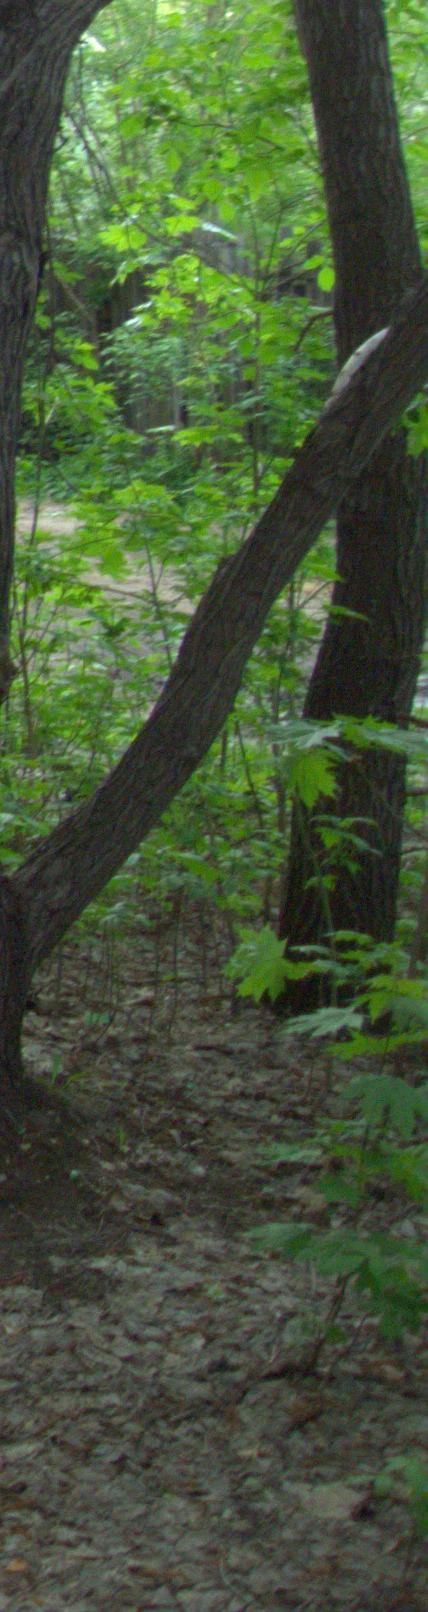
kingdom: Plantae
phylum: Tracheophyta
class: Magnoliopsida
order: Sapindales
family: Sapindaceae
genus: Acer
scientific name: Acer platanoides
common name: Norway maple
